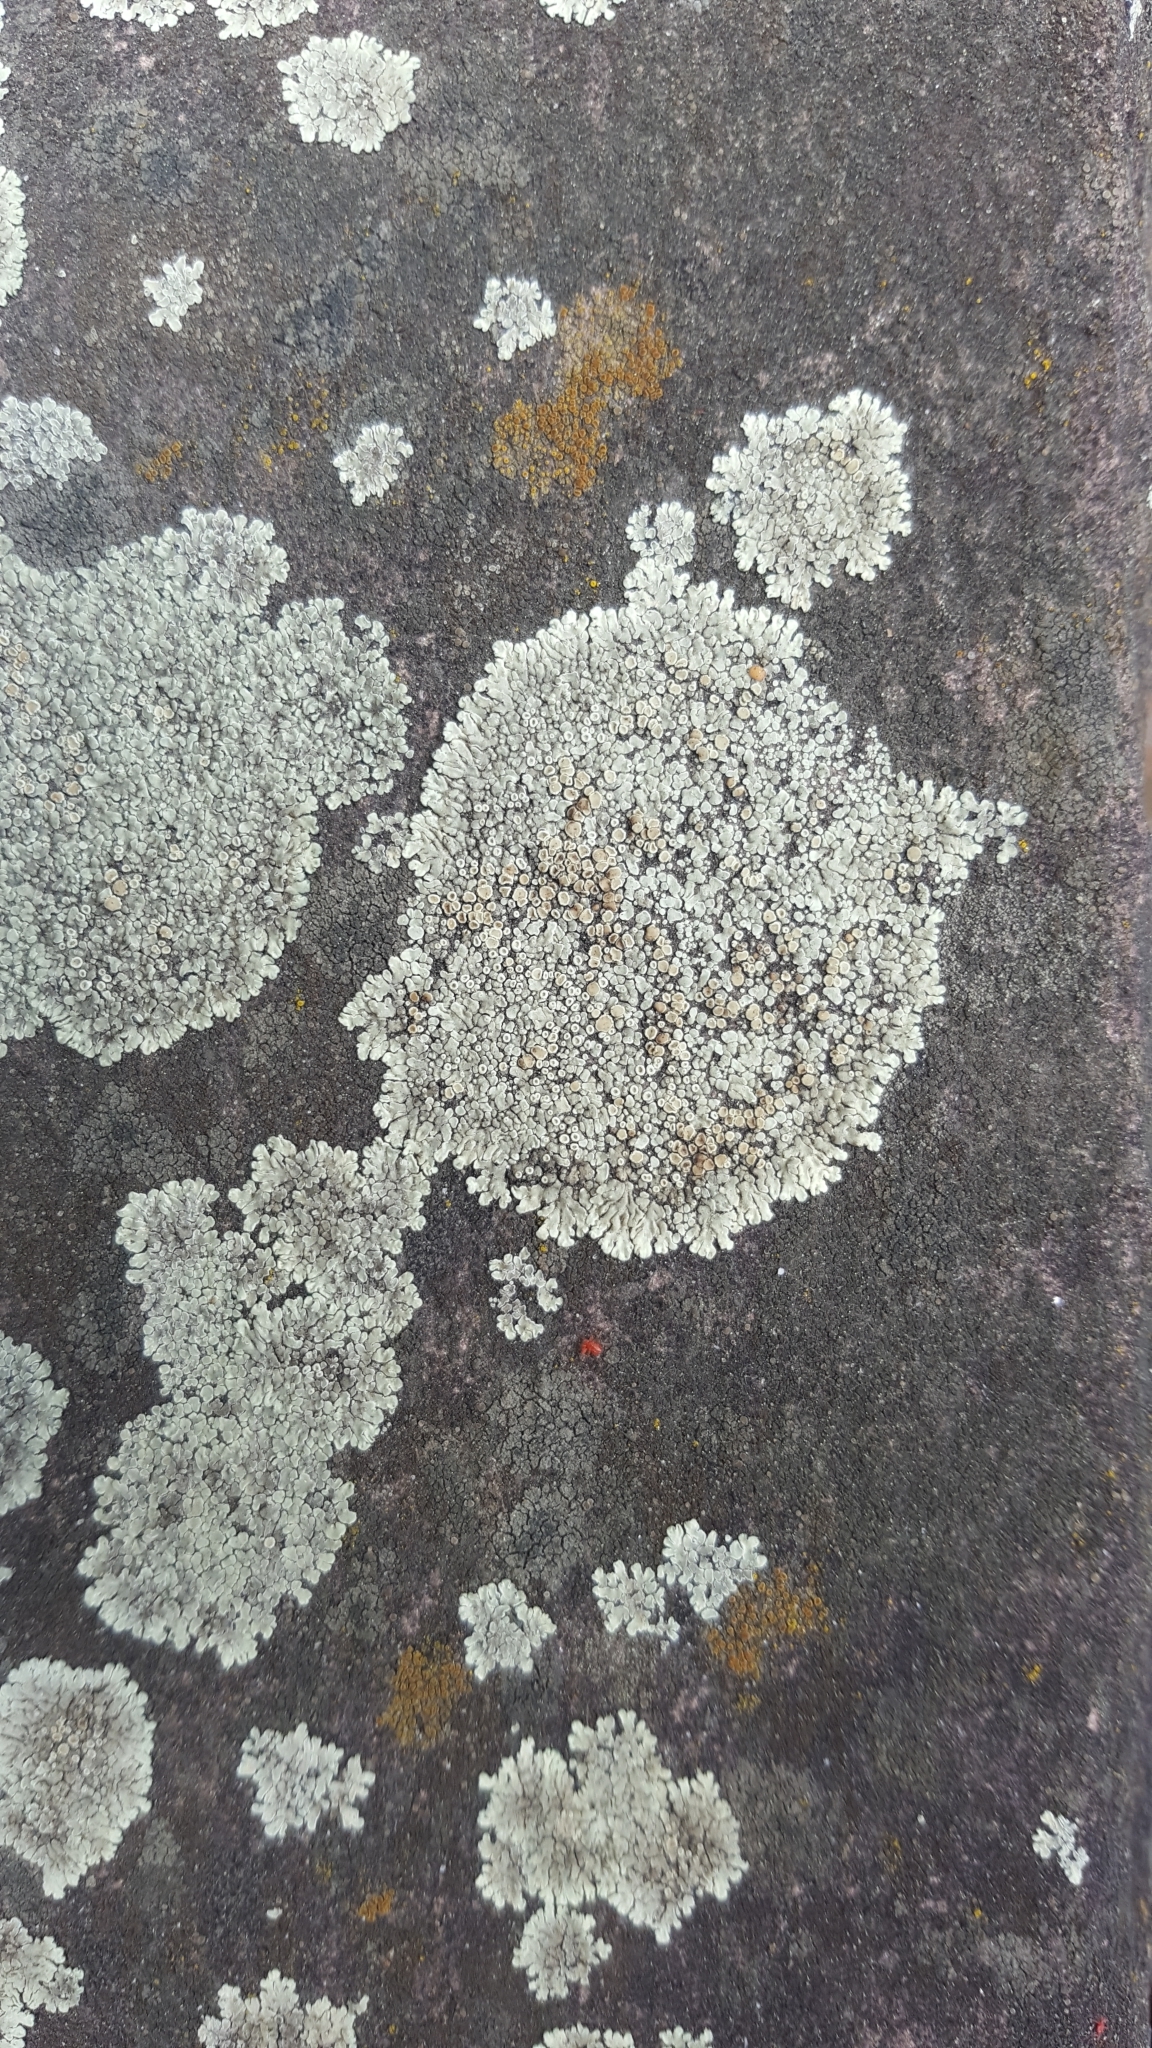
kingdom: Fungi
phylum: Ascomycota
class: Lecanoromycetes
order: Lecanorales
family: Lecanoraceae
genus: Protoparmeliopsis
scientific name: Protoparmeliopsis muralis
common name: Stonewall rim lichen
